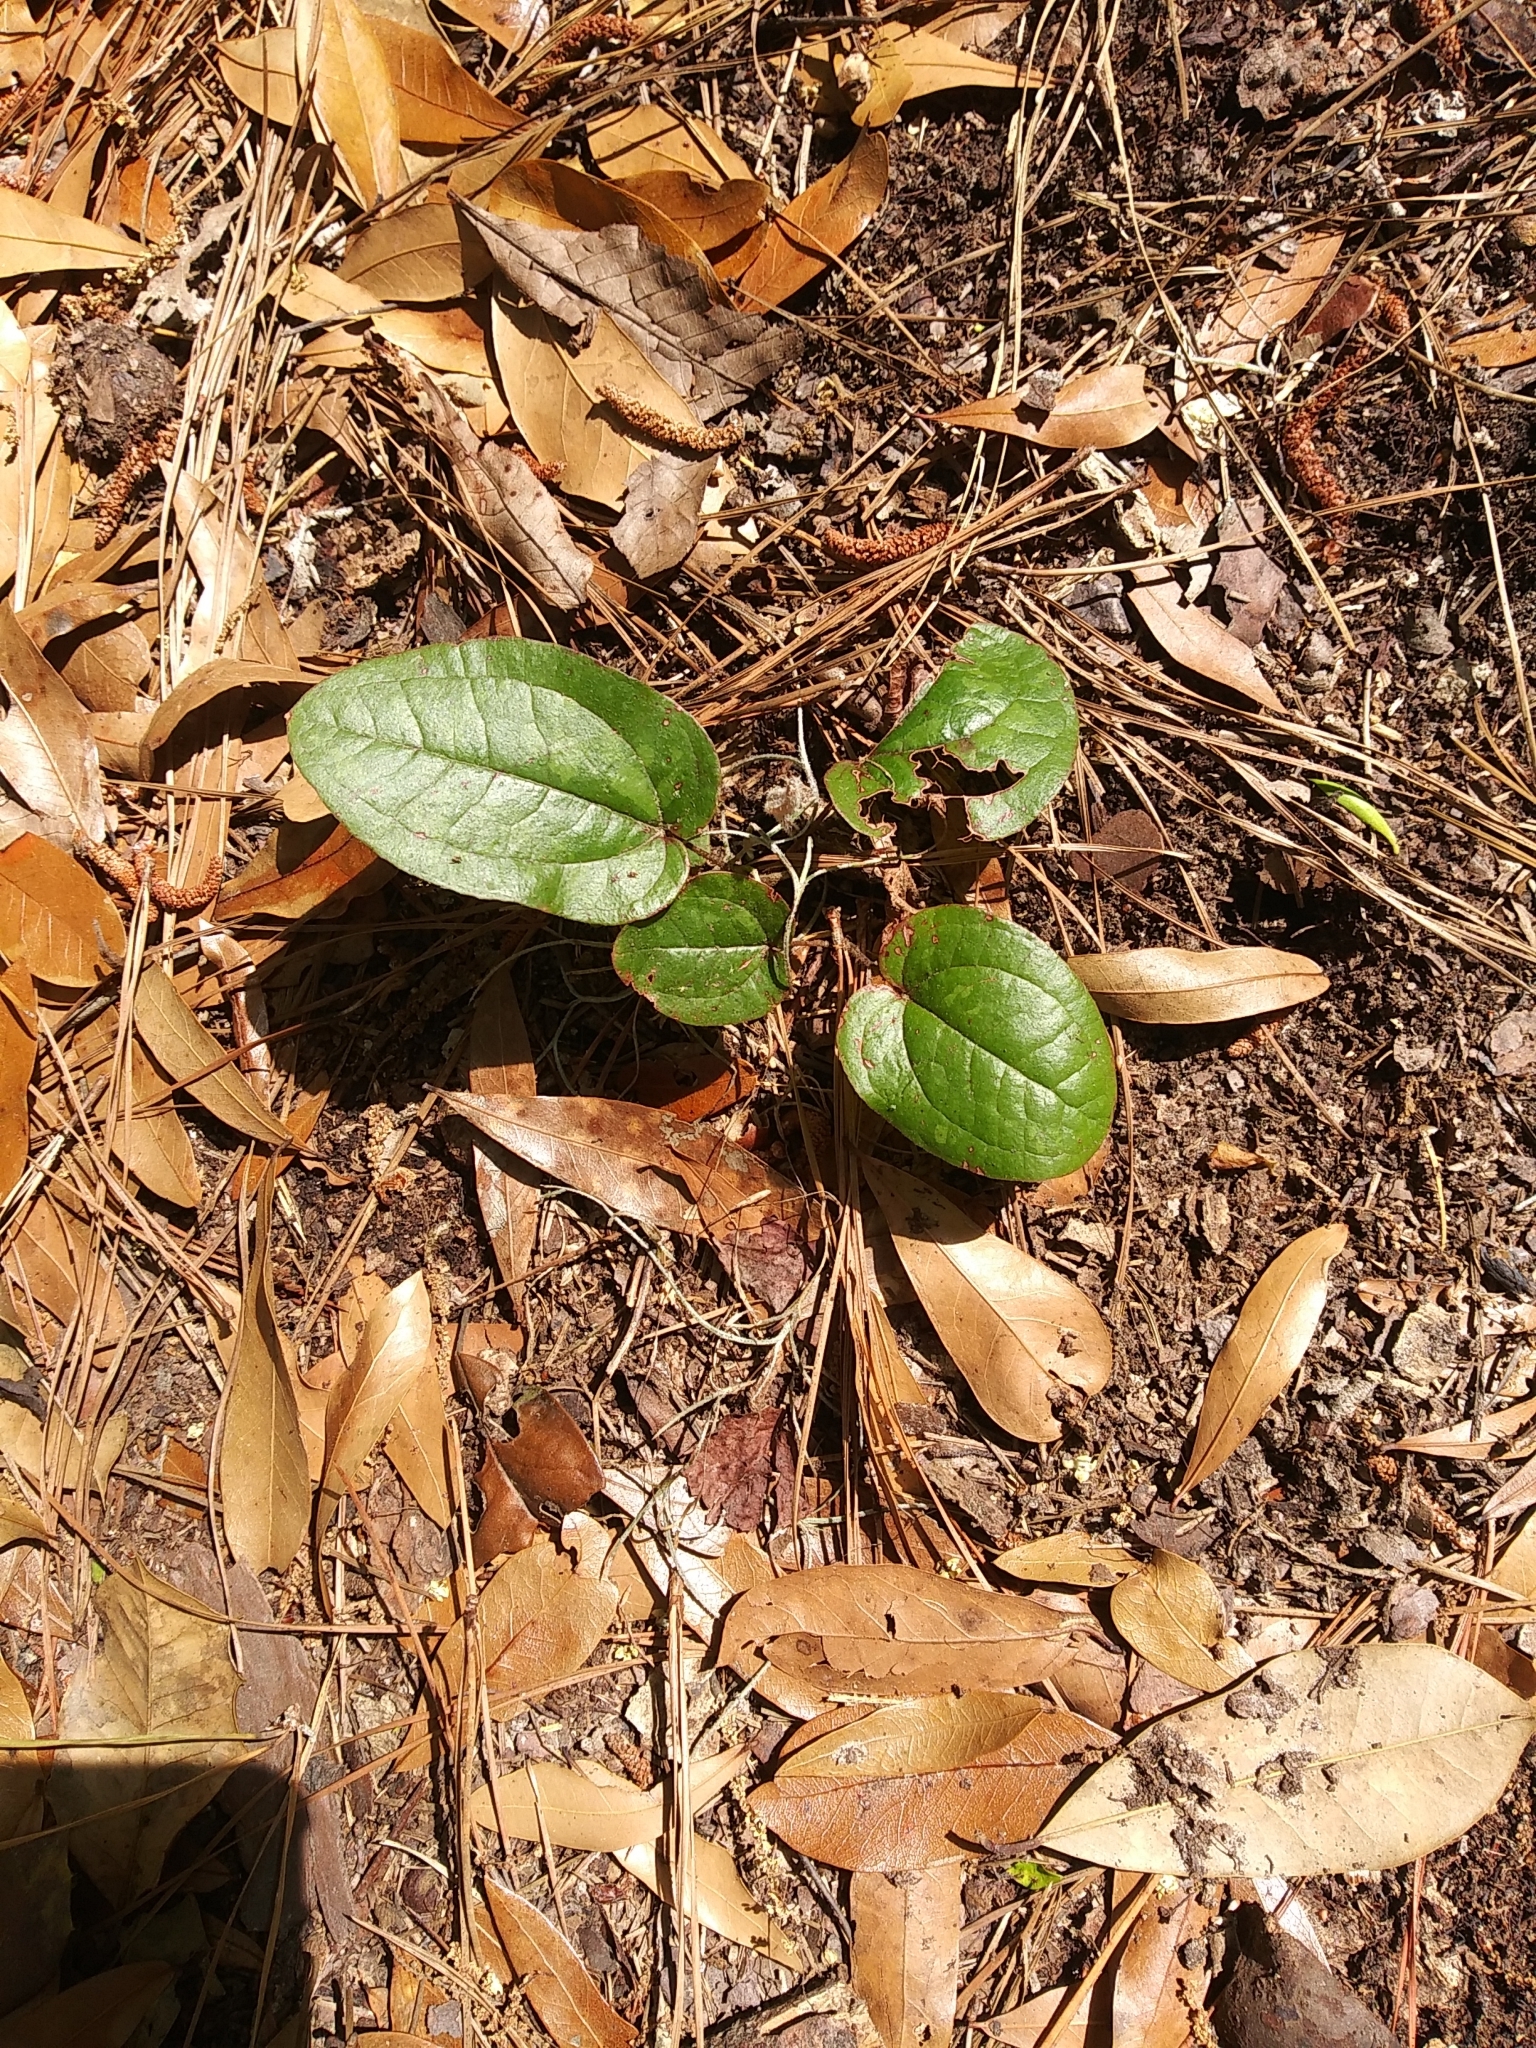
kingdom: Plantae
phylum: Tracheophyta
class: Liliopsida
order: Liliales
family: Smilacaceae
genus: Smilax
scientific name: Smilax pumila
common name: Sarsaparilla-vine
